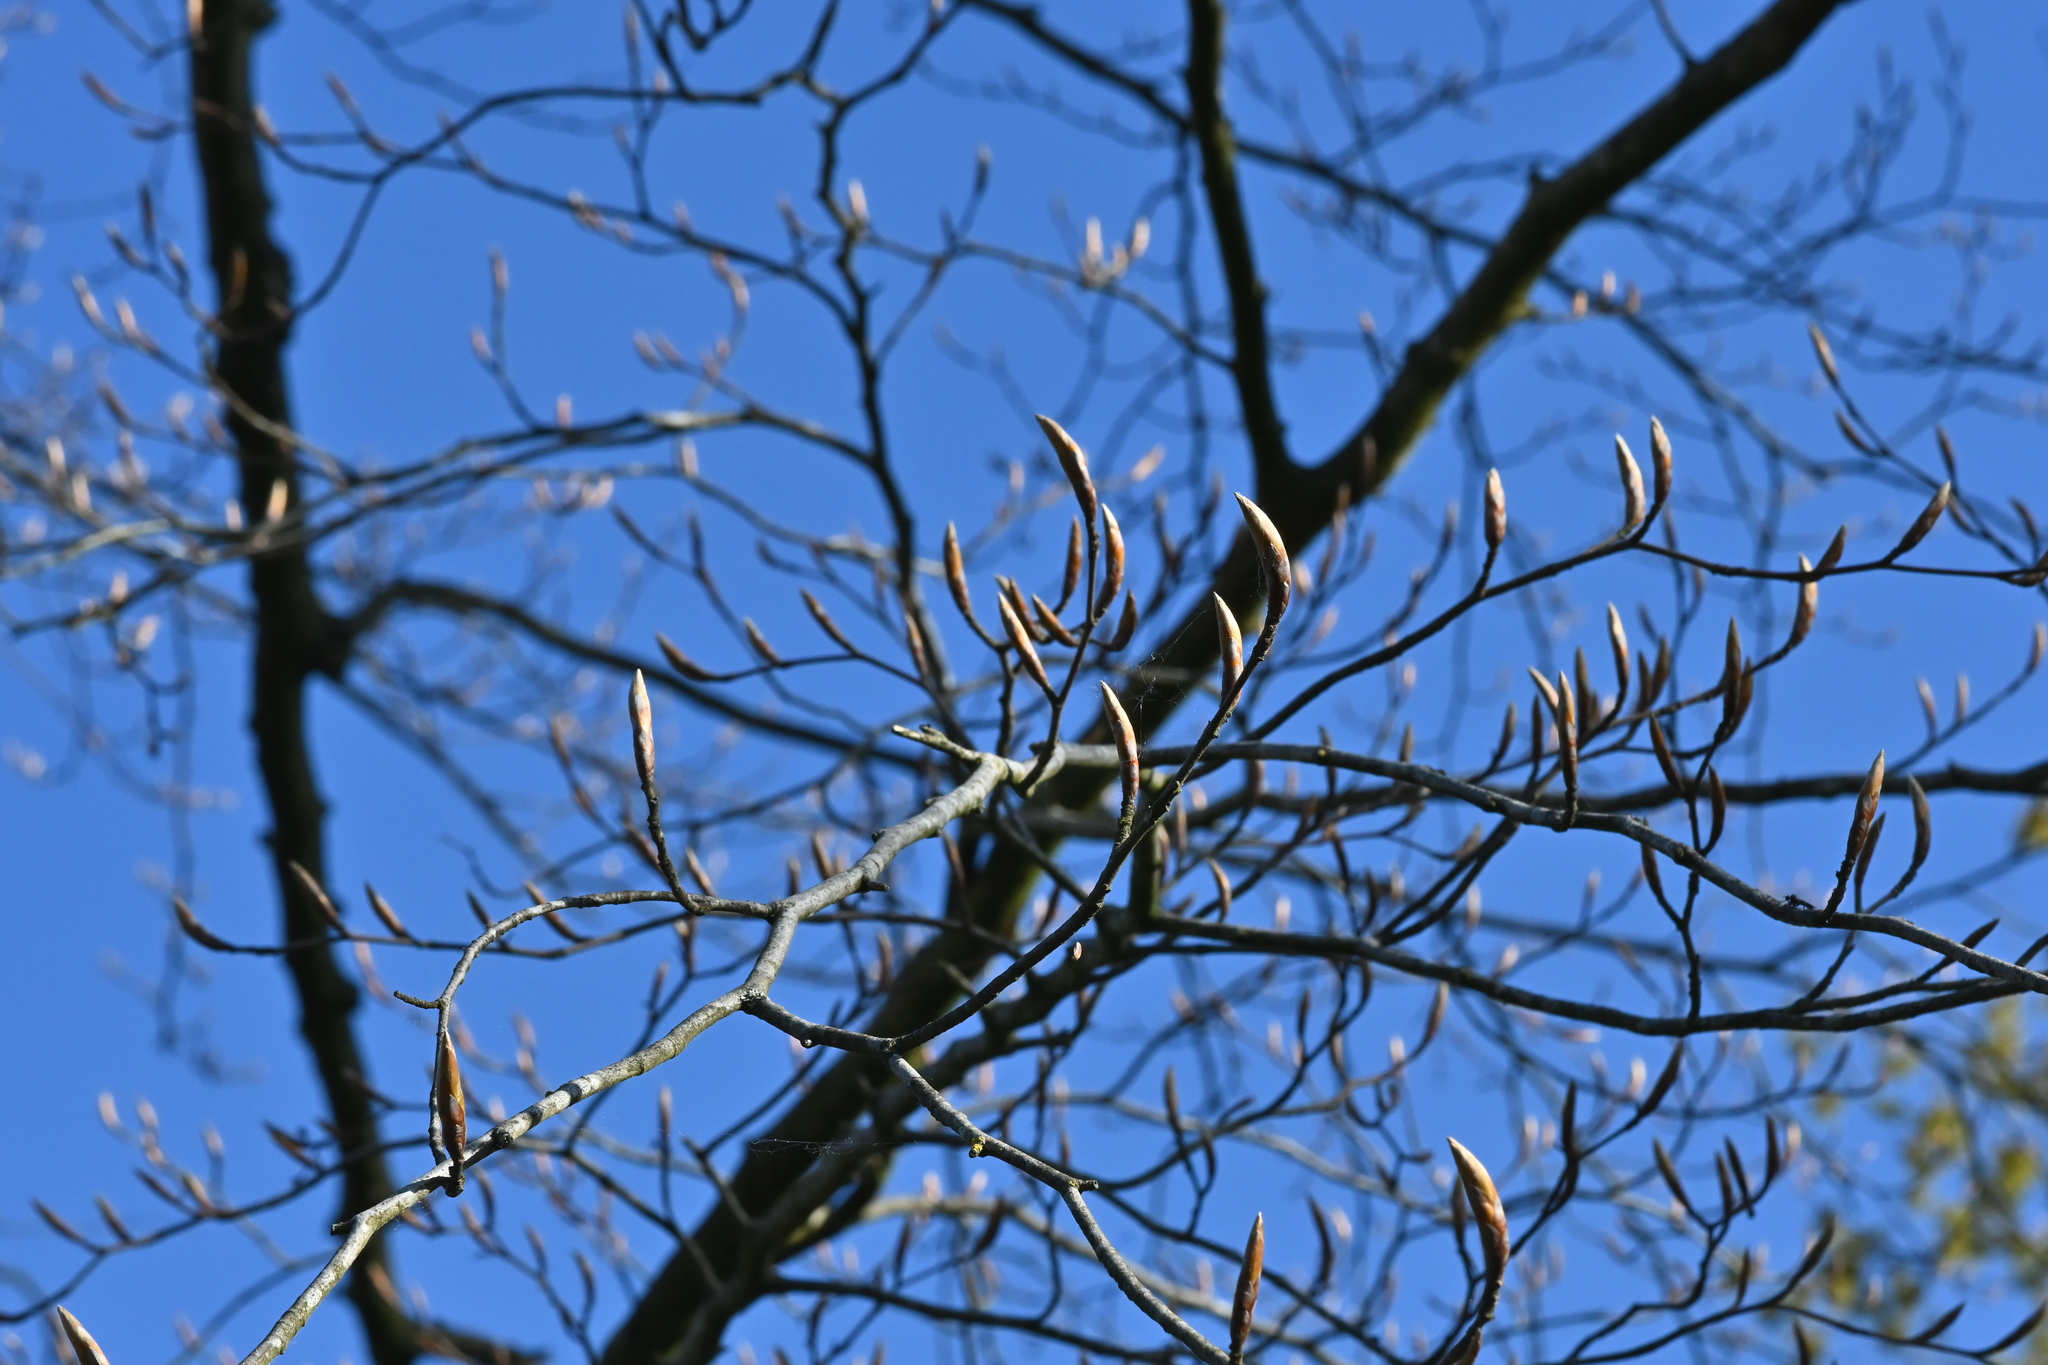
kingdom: Plantae
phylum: Tracheophyta
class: Magnoliopsida
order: Fagales
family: Fagaceae
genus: Fagus
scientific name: Fagus sylvatica
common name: Beech
